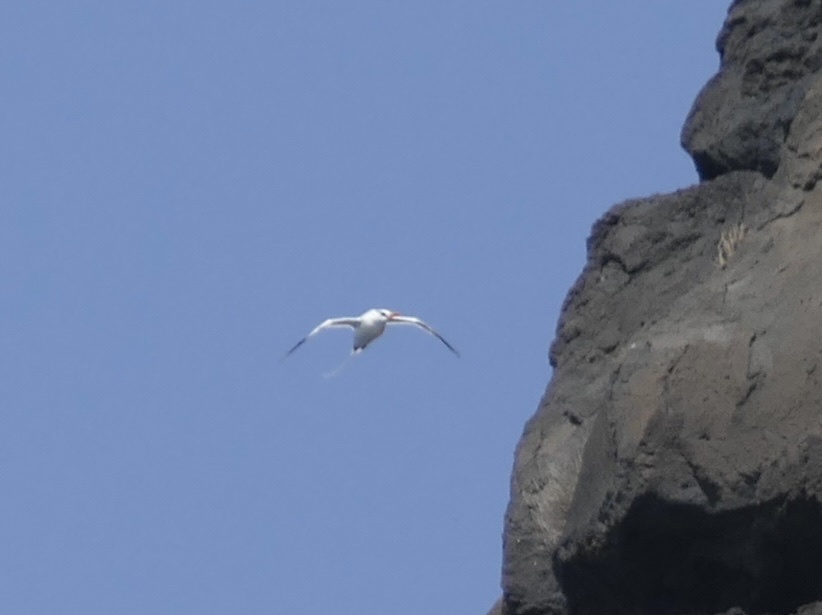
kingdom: Animalia
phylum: Chordata
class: Aves
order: Phaethontiformes
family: Phaethontidae
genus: Phaethon
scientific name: Phaethon aethereus
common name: Red-billed tropicbird
